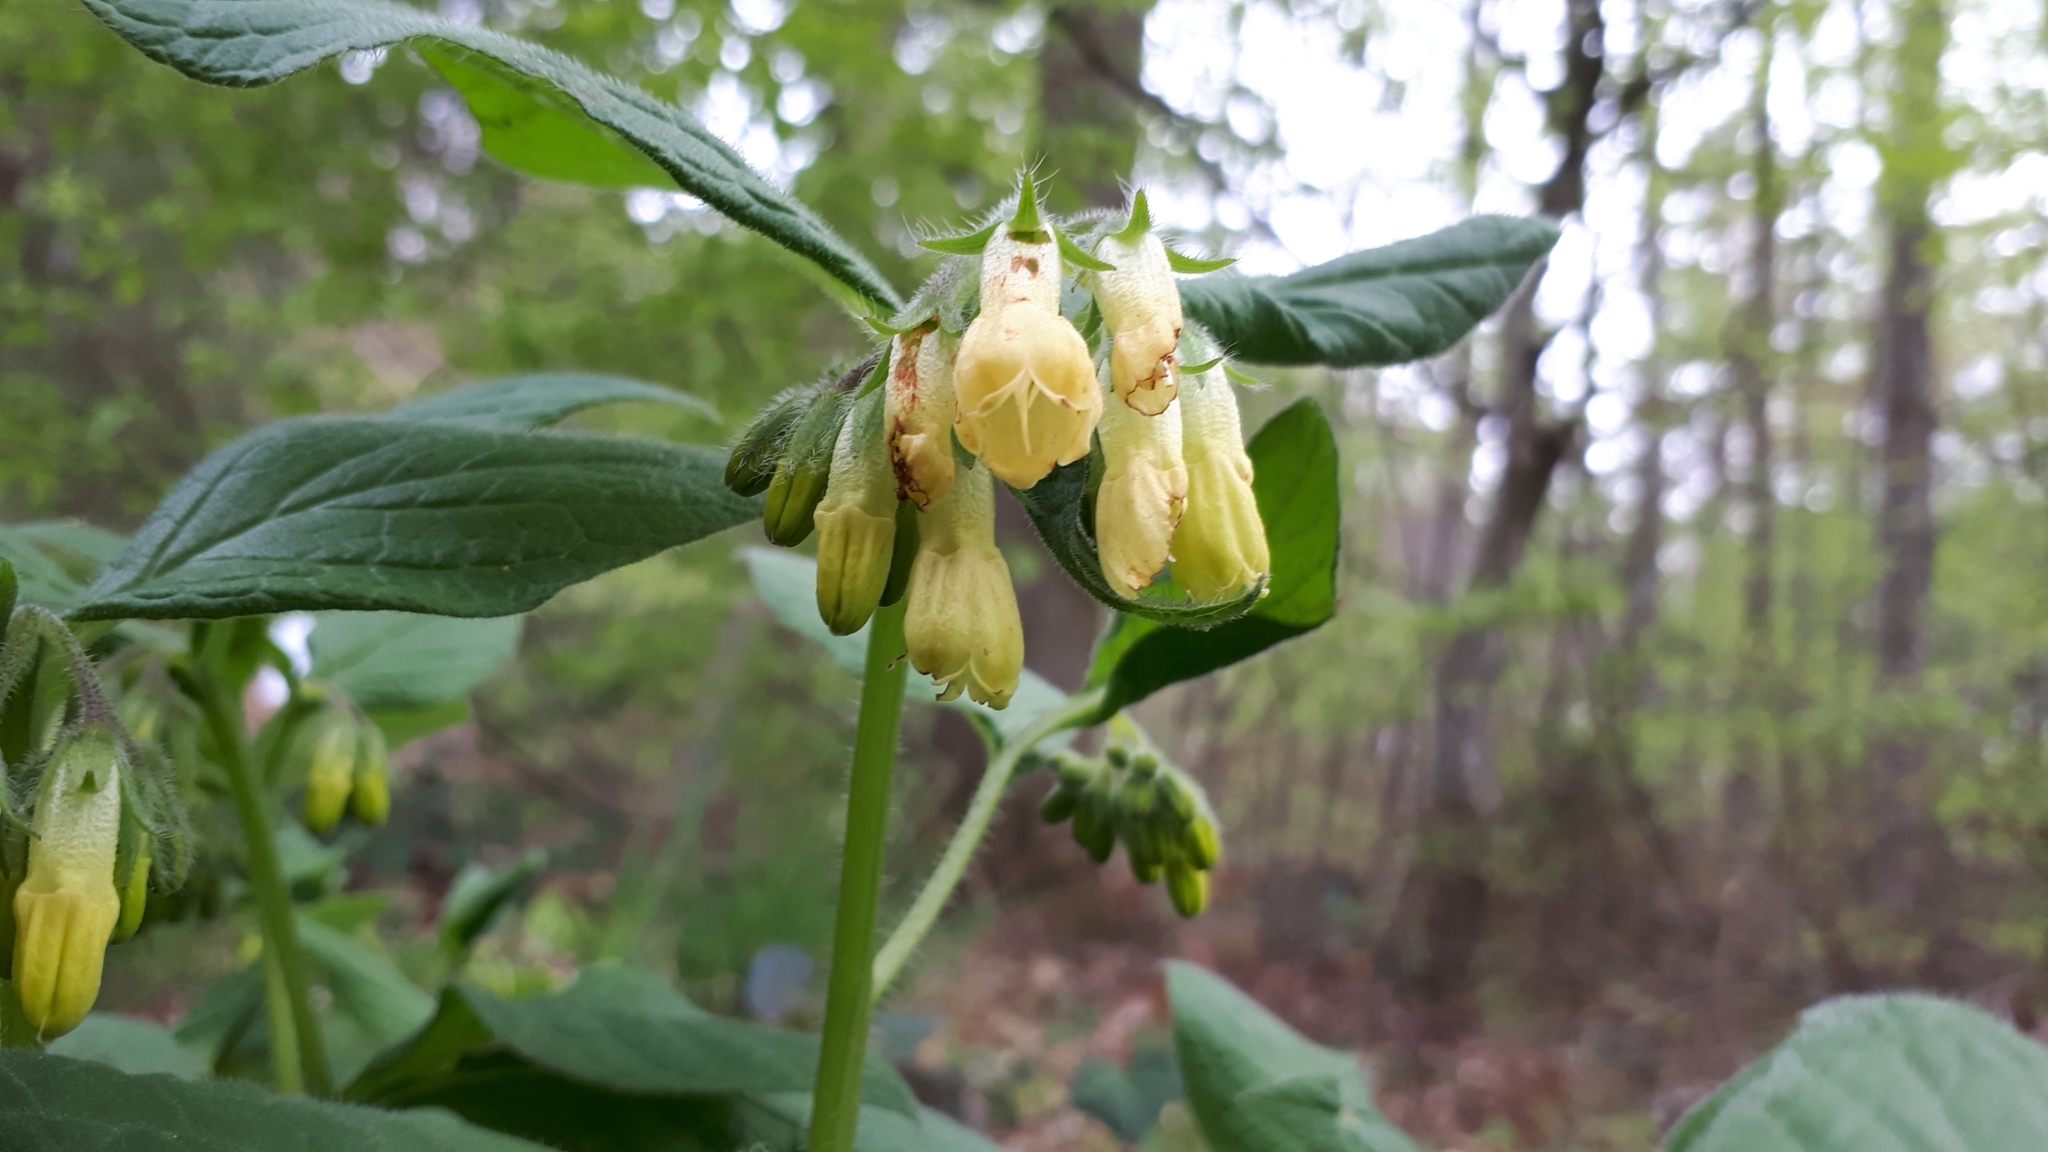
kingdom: Plantae
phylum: Tracheophyta
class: Magnoliopsida
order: Boraginales
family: Boraginaceae
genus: Symphytum
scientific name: Symphytum tuberosum
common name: Tuberous comfrey
